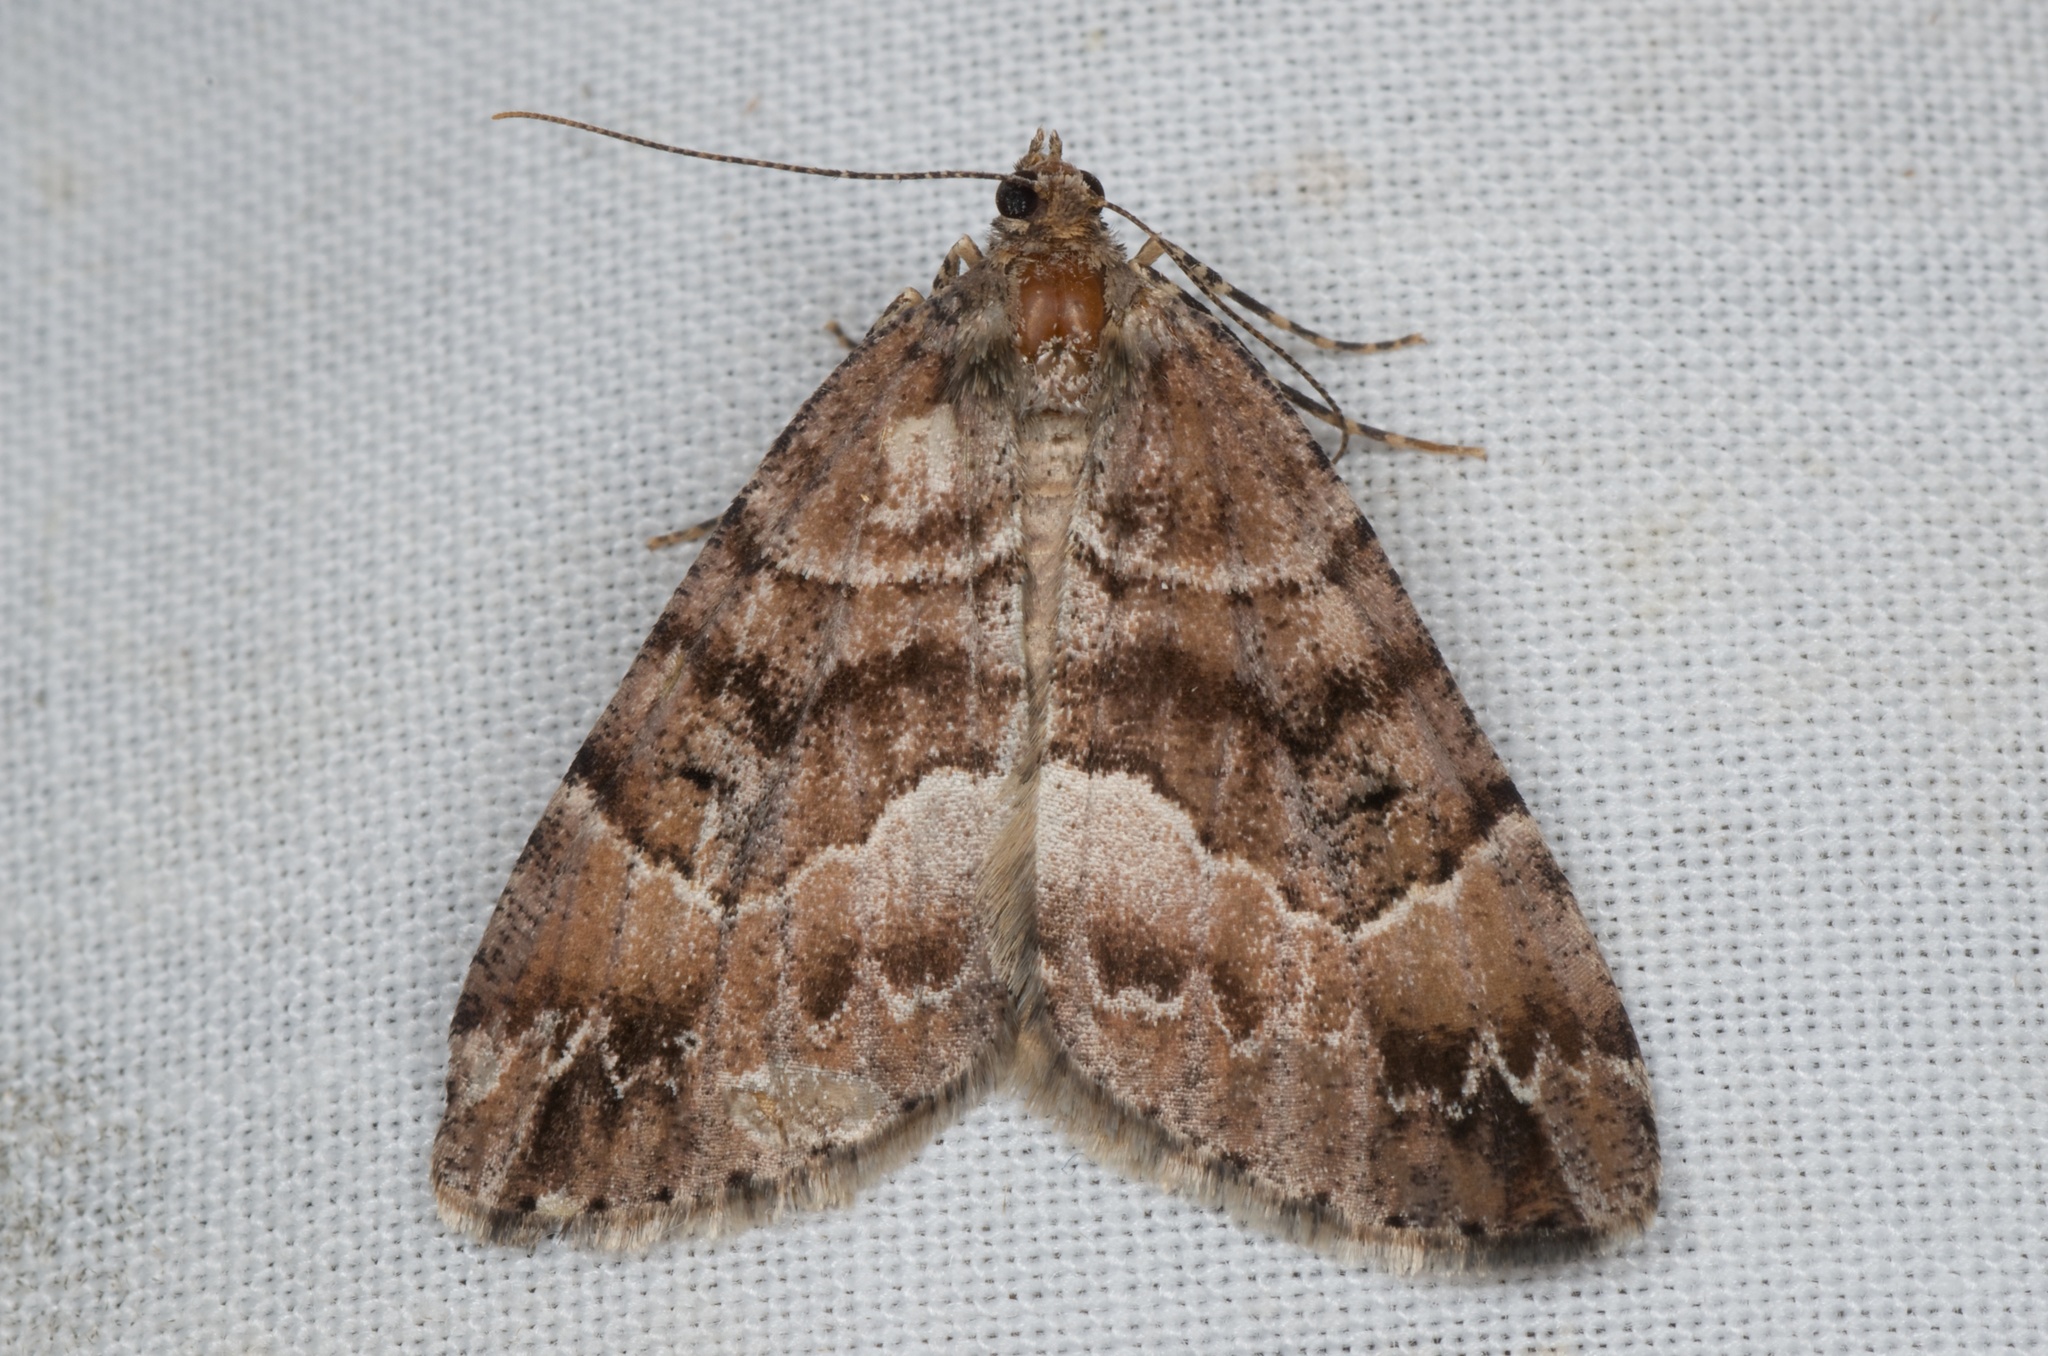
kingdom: Animalia
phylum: Arthropoda
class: Insecta
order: Lepidoptera
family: Geometridae
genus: Pseudocoremia
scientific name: Pseudocoremia productata
